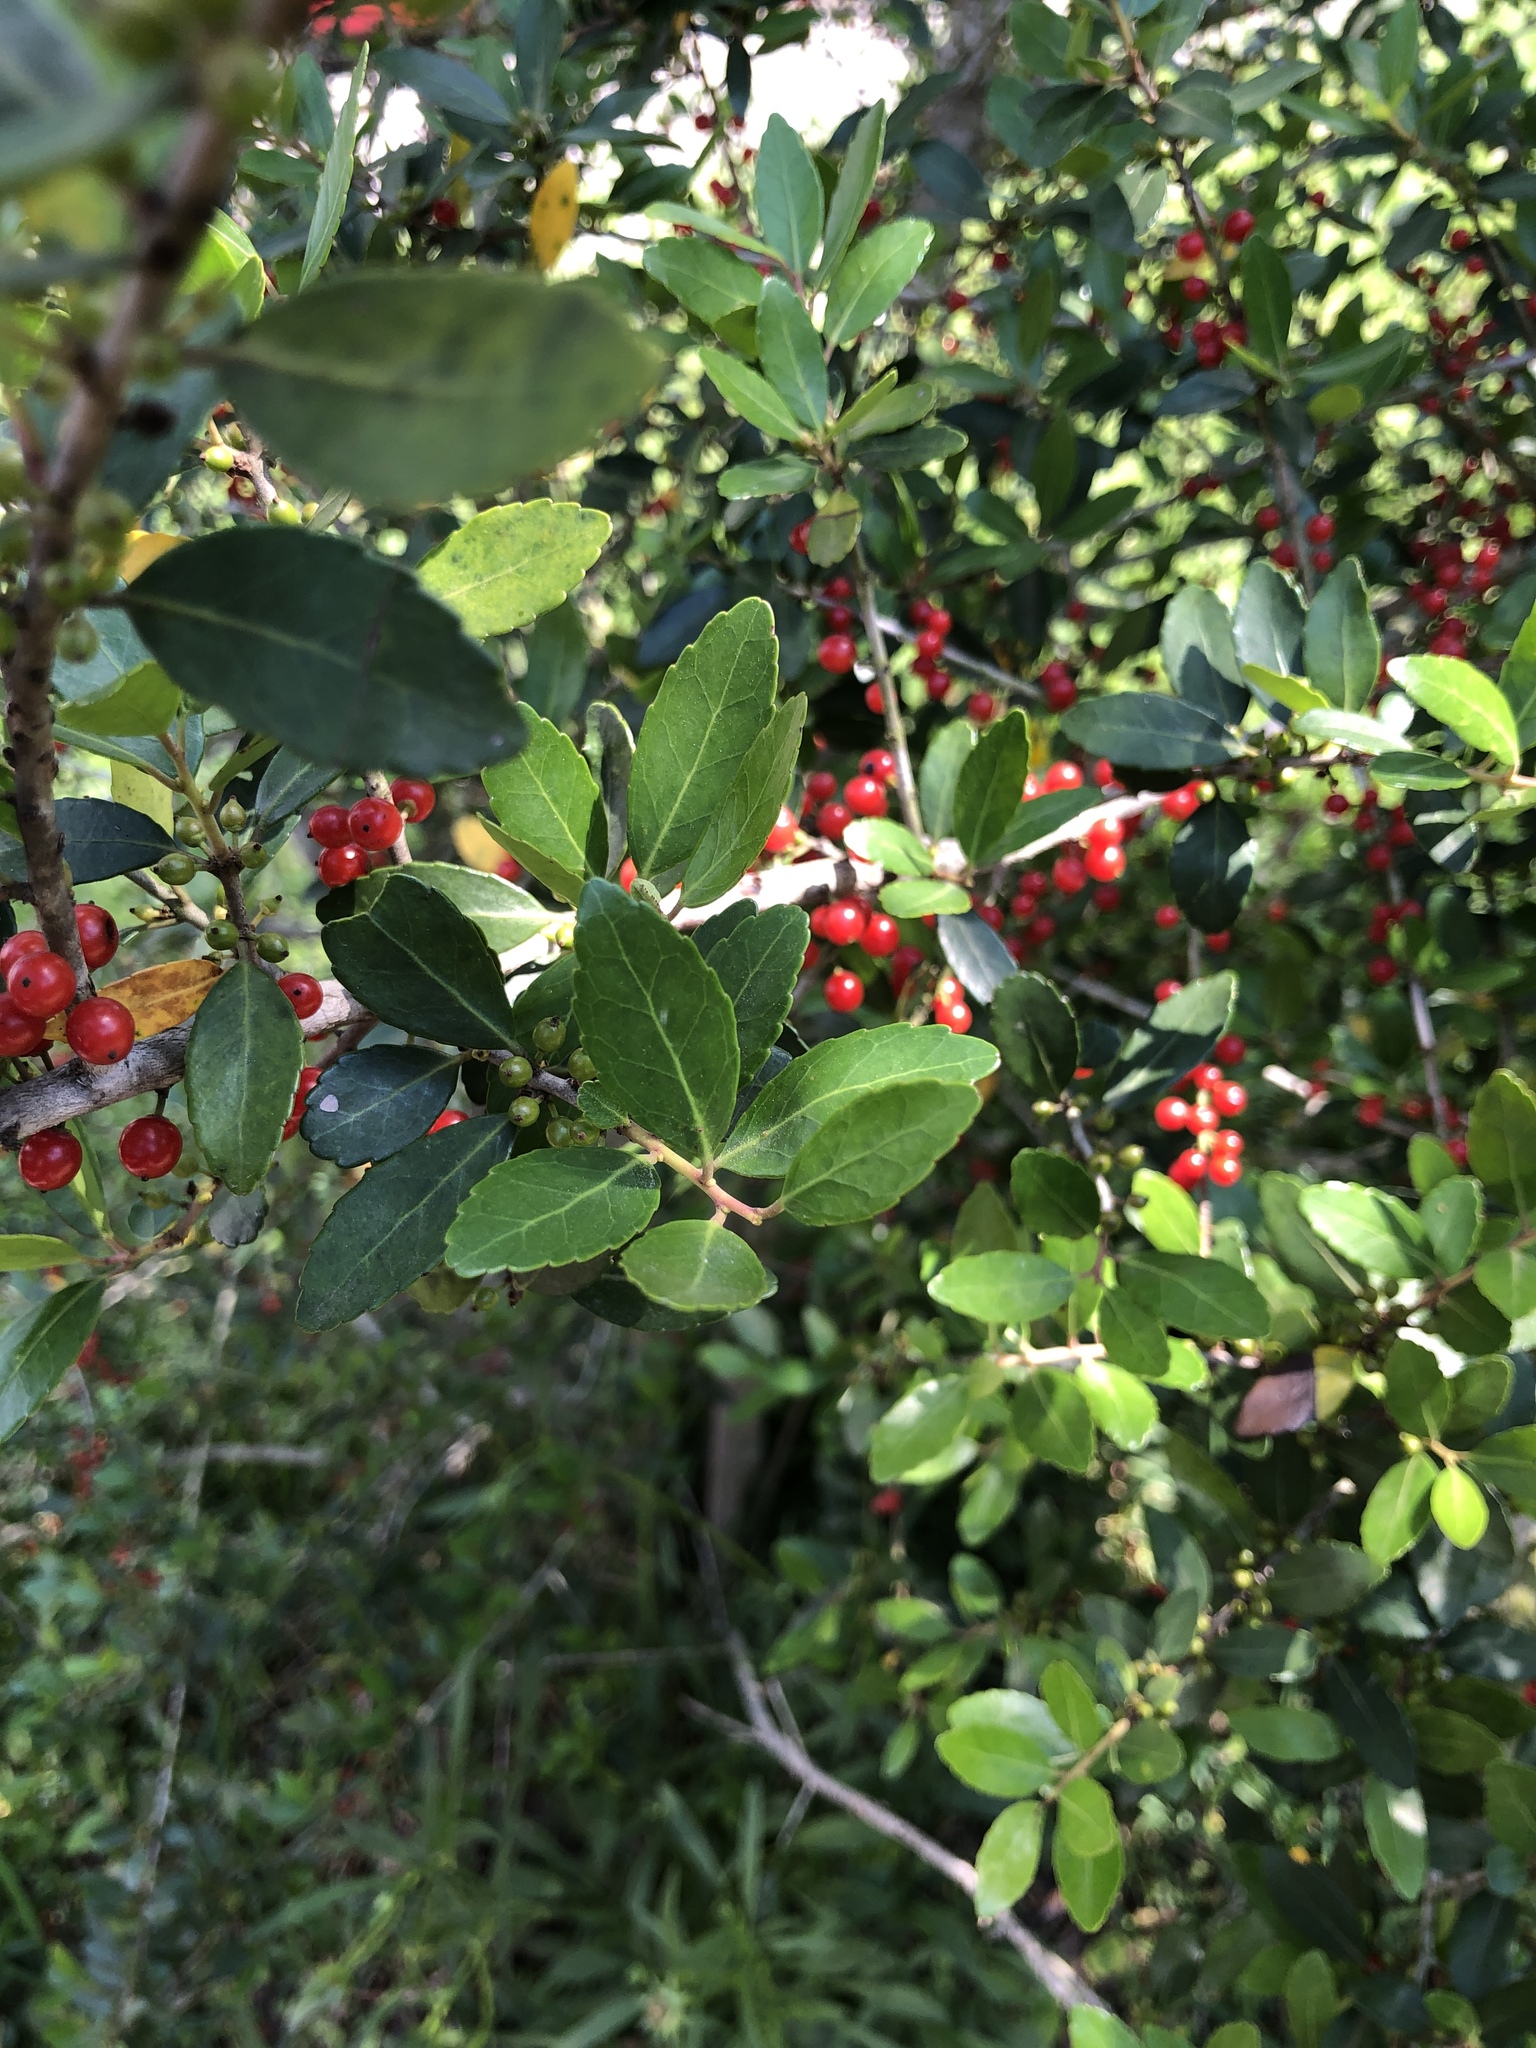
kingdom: Plantae
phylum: Tracheophyta
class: Magnoliopsida
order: Aquifoliales
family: Aquifoliaceae
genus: Ilex
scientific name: Ilex vomitoria
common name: Yaupon holly
